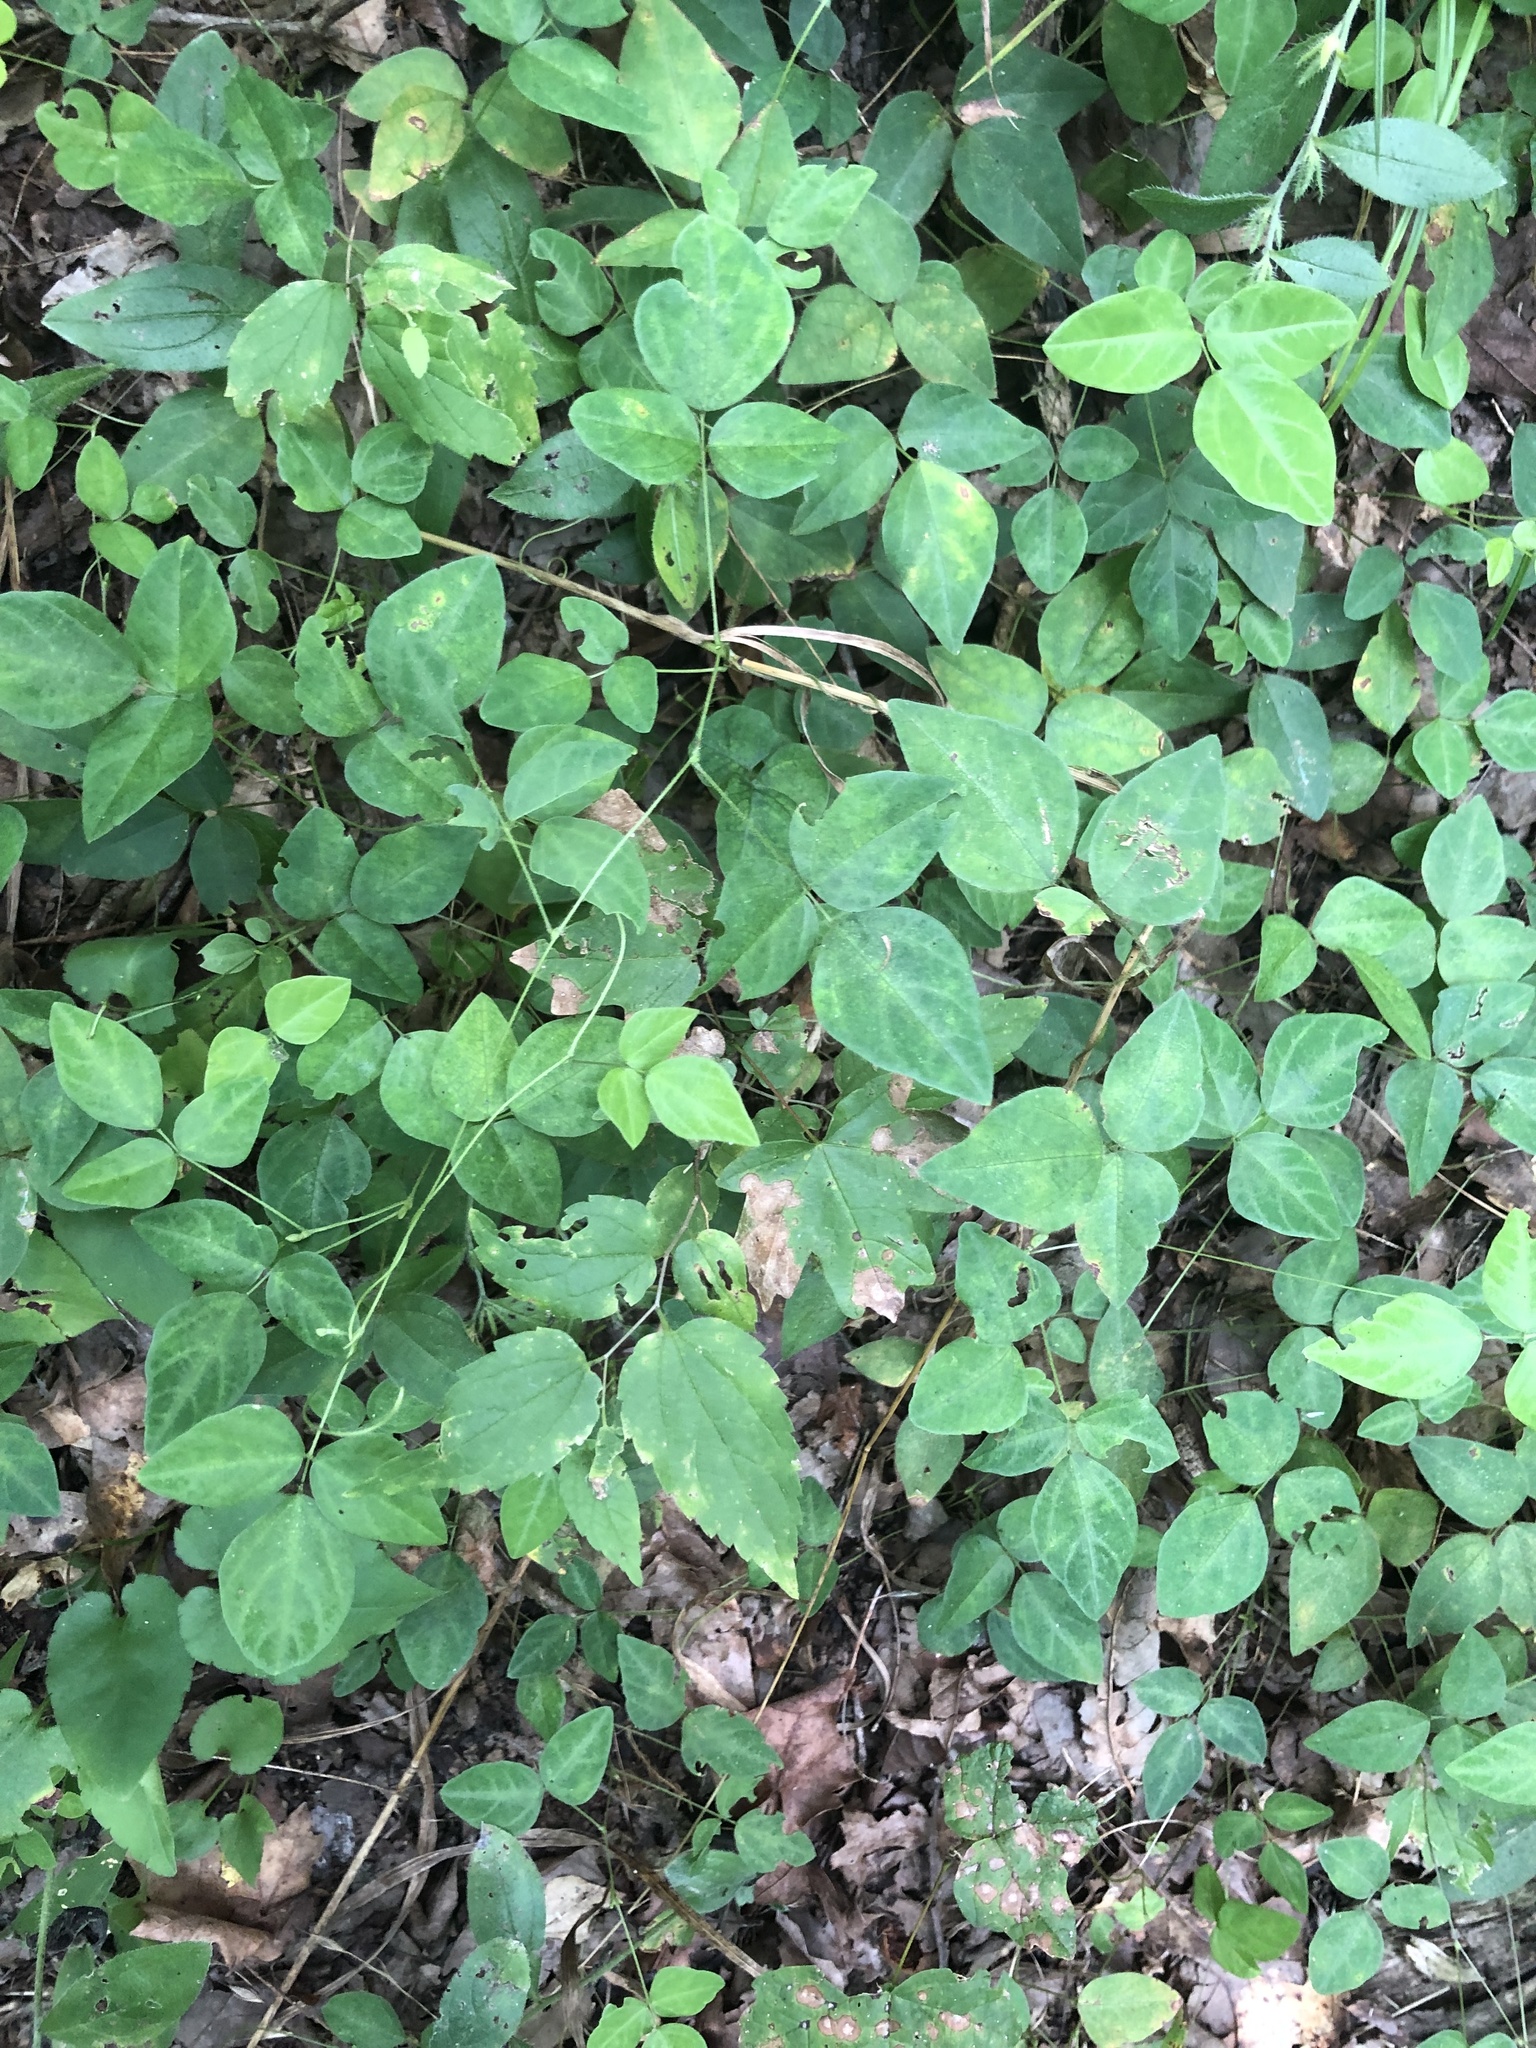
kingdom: Plantae
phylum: Tracheophyta
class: Magnoliopsida
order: Fabales
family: Fabaceae
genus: Amphicarpaea
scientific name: Amphicarpaea bracteata
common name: American hog peanut
